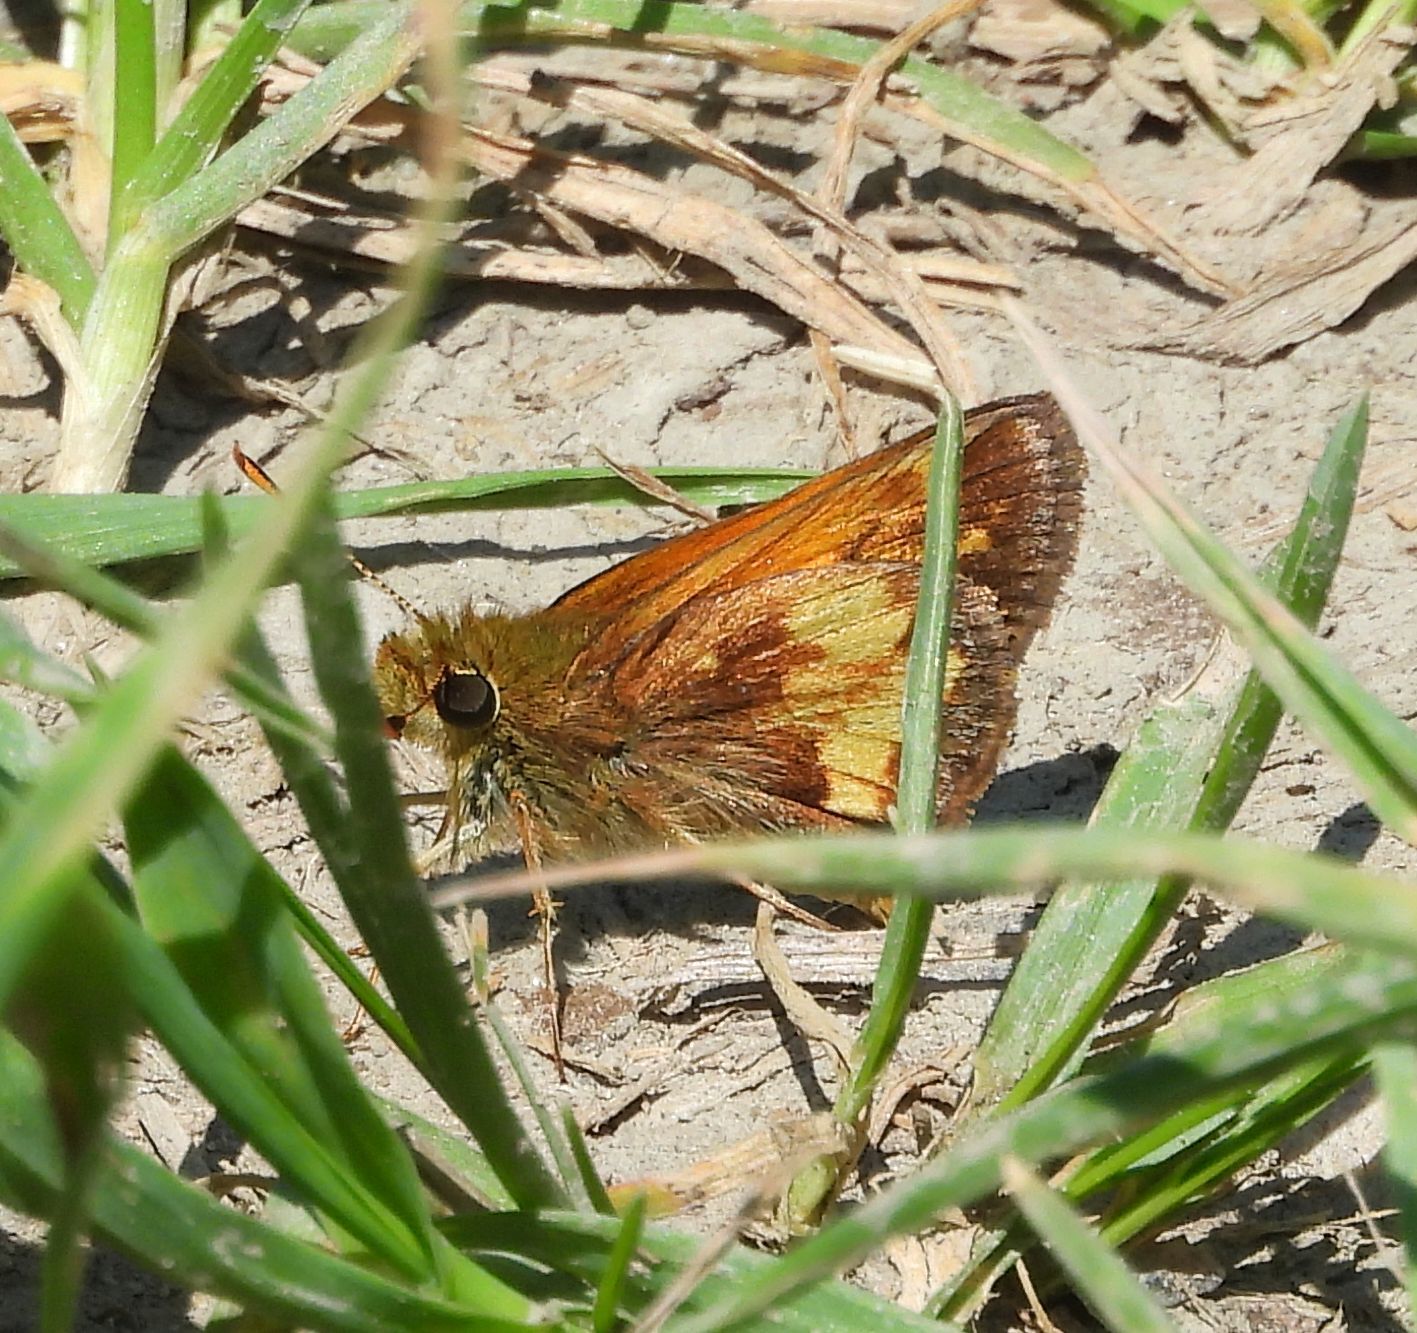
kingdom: Animalia
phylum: Arthropoda
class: Insecta
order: Lepidoptera
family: Hesperiidae
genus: Lon
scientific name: Lon hobomok
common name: Hobomok skipper
